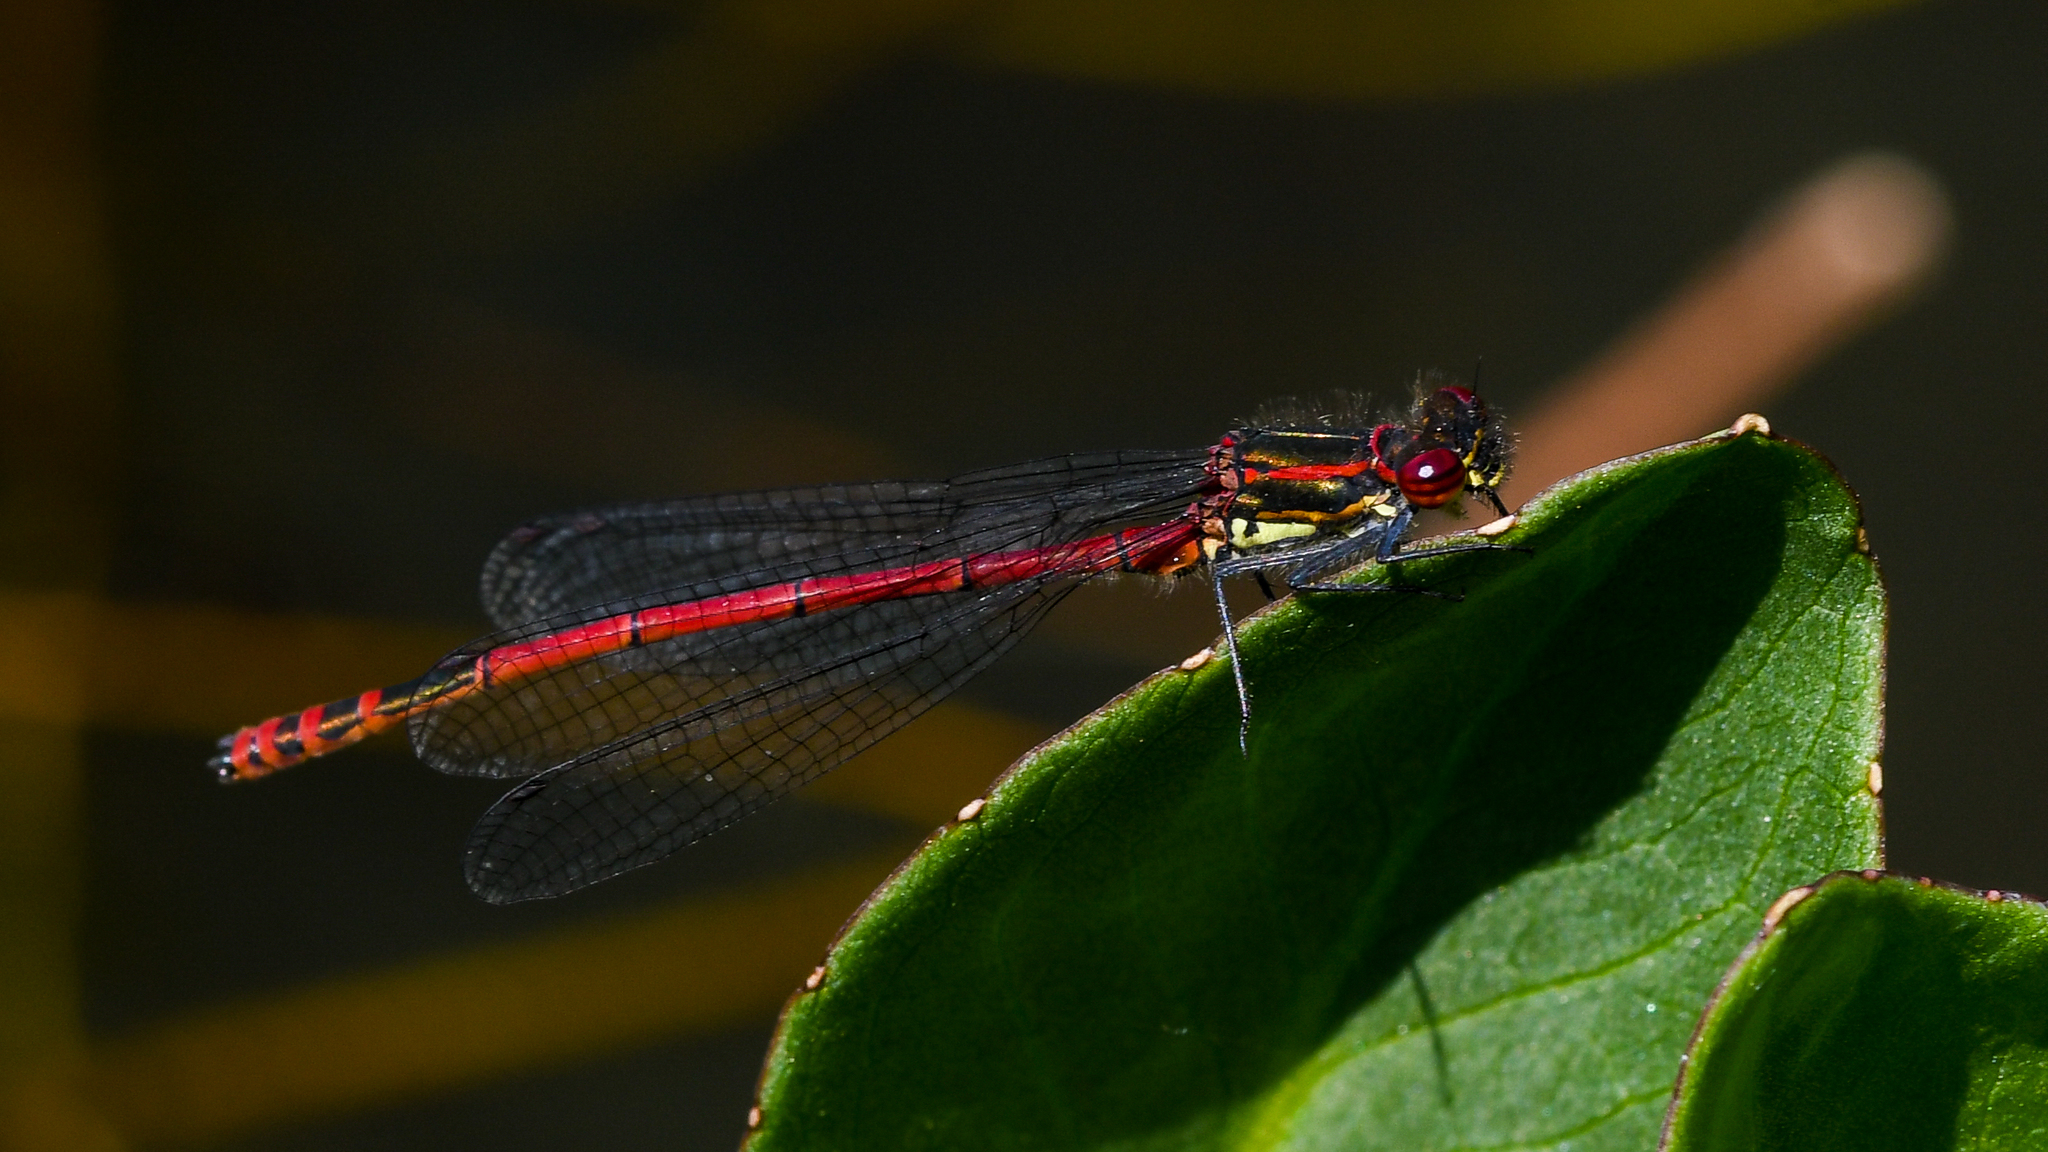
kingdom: Animalia
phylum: Arthropoda
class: Insecta
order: Odonata
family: Coenagrionidae
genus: Pyrrhosoma
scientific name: Pyrrhosoma nymphula
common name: Large red damsel
